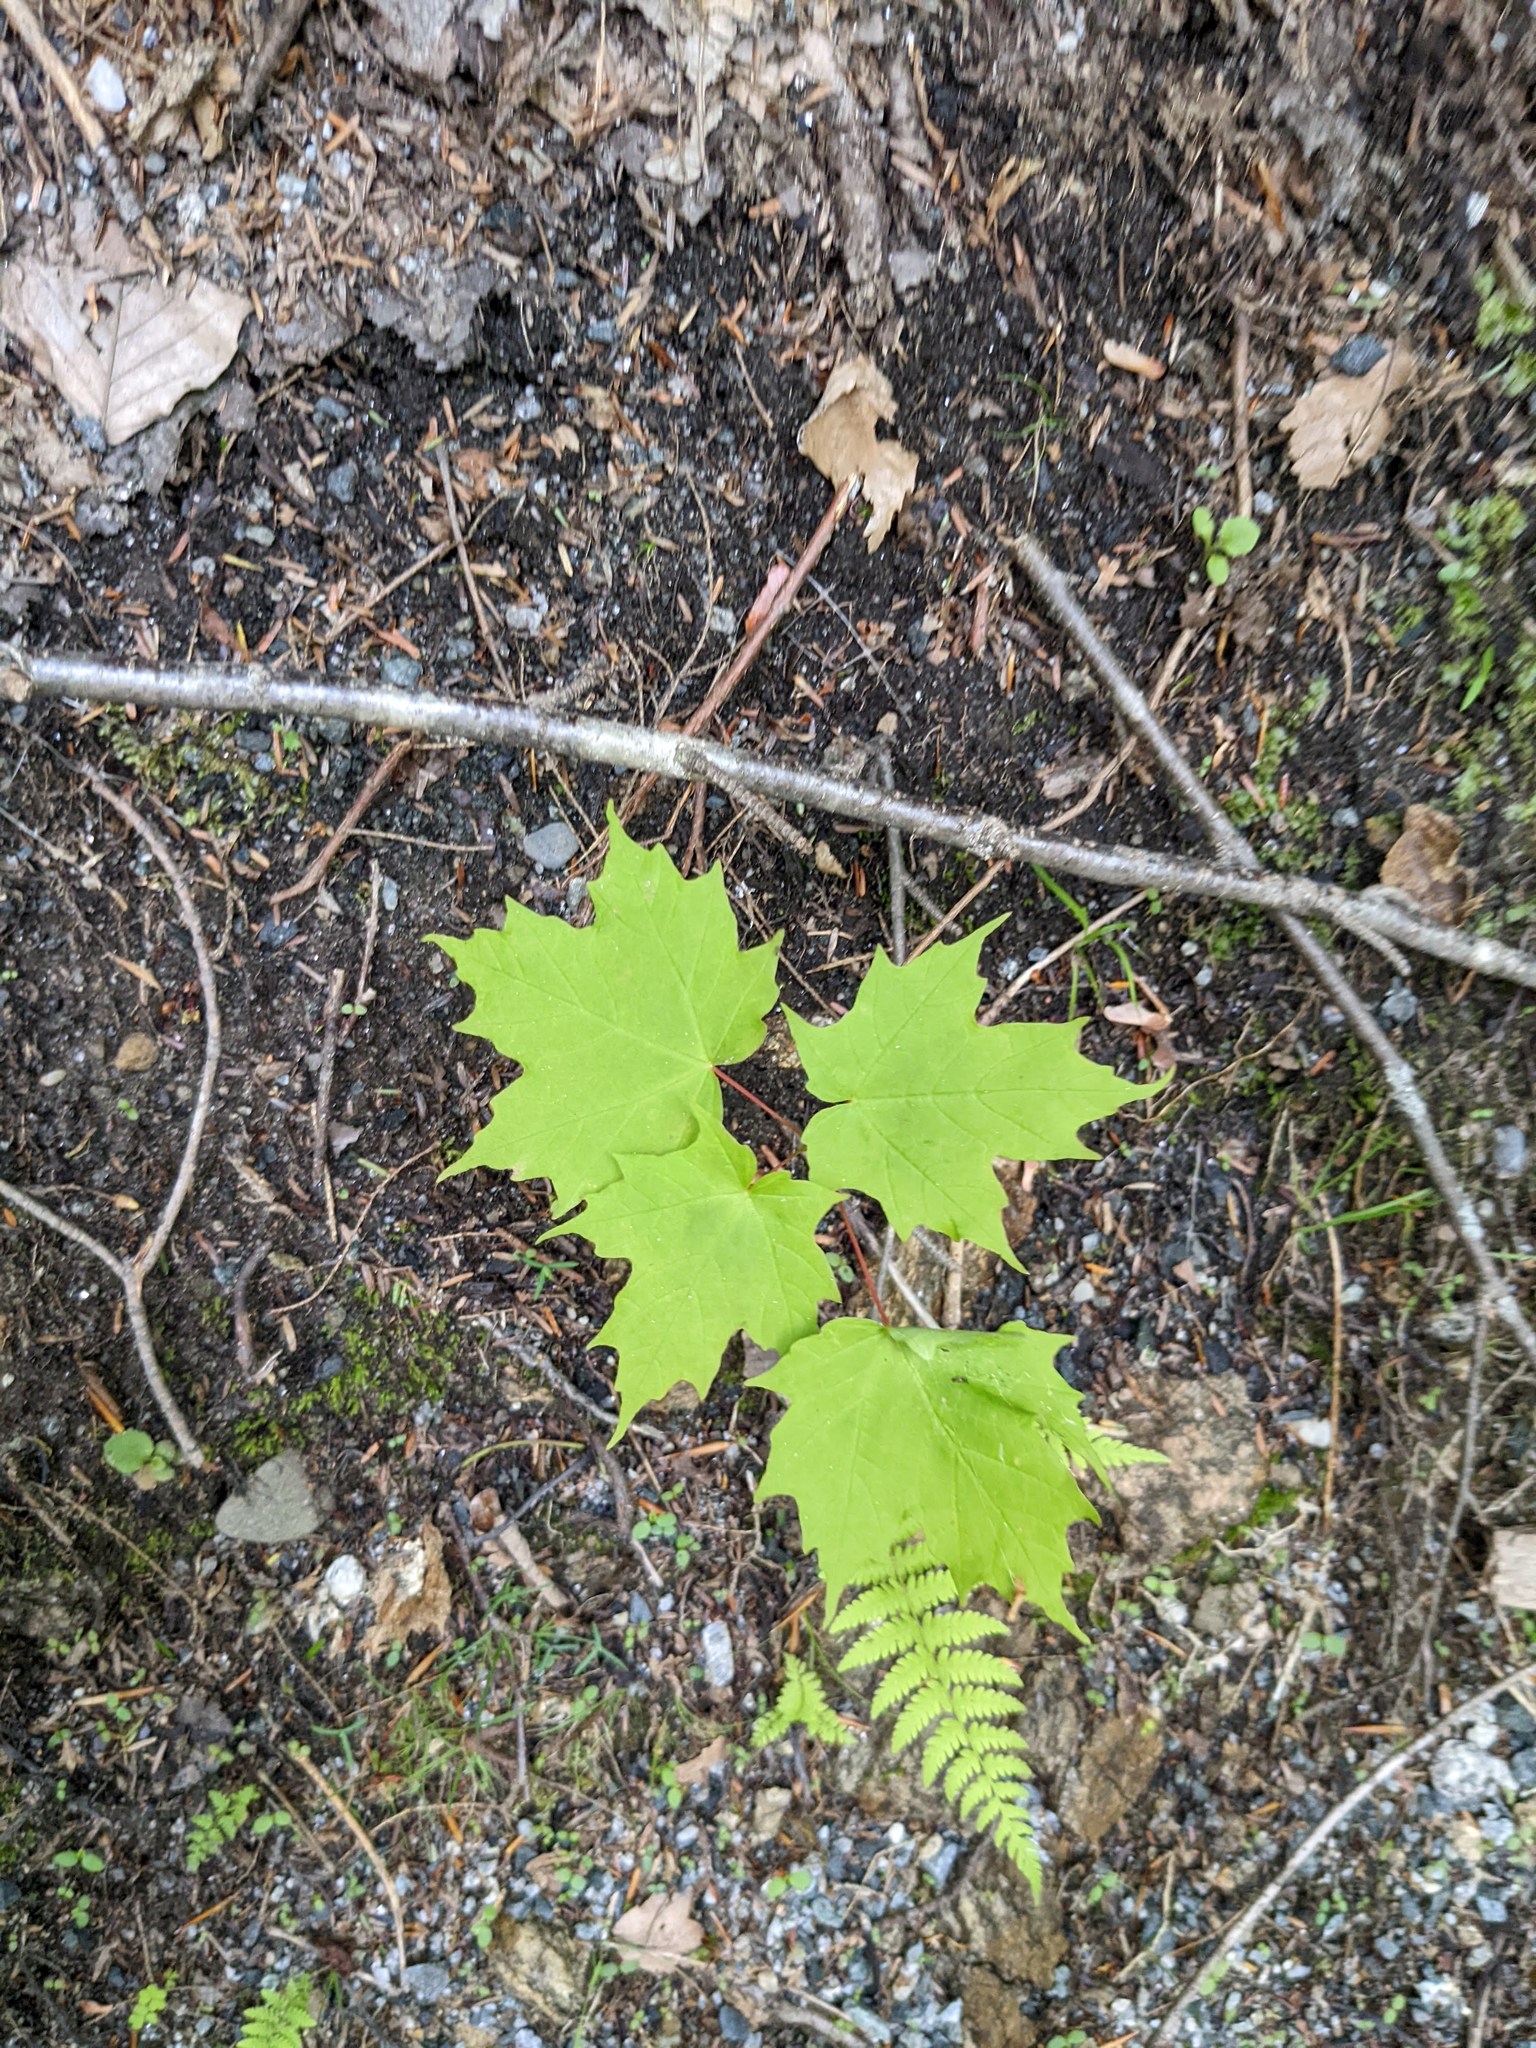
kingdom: Plantae
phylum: Tracheophyta
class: Magnoliopsida
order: Sapindales
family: Sapindaceae
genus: Acer
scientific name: Acer saccharum
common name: Sugar maple
